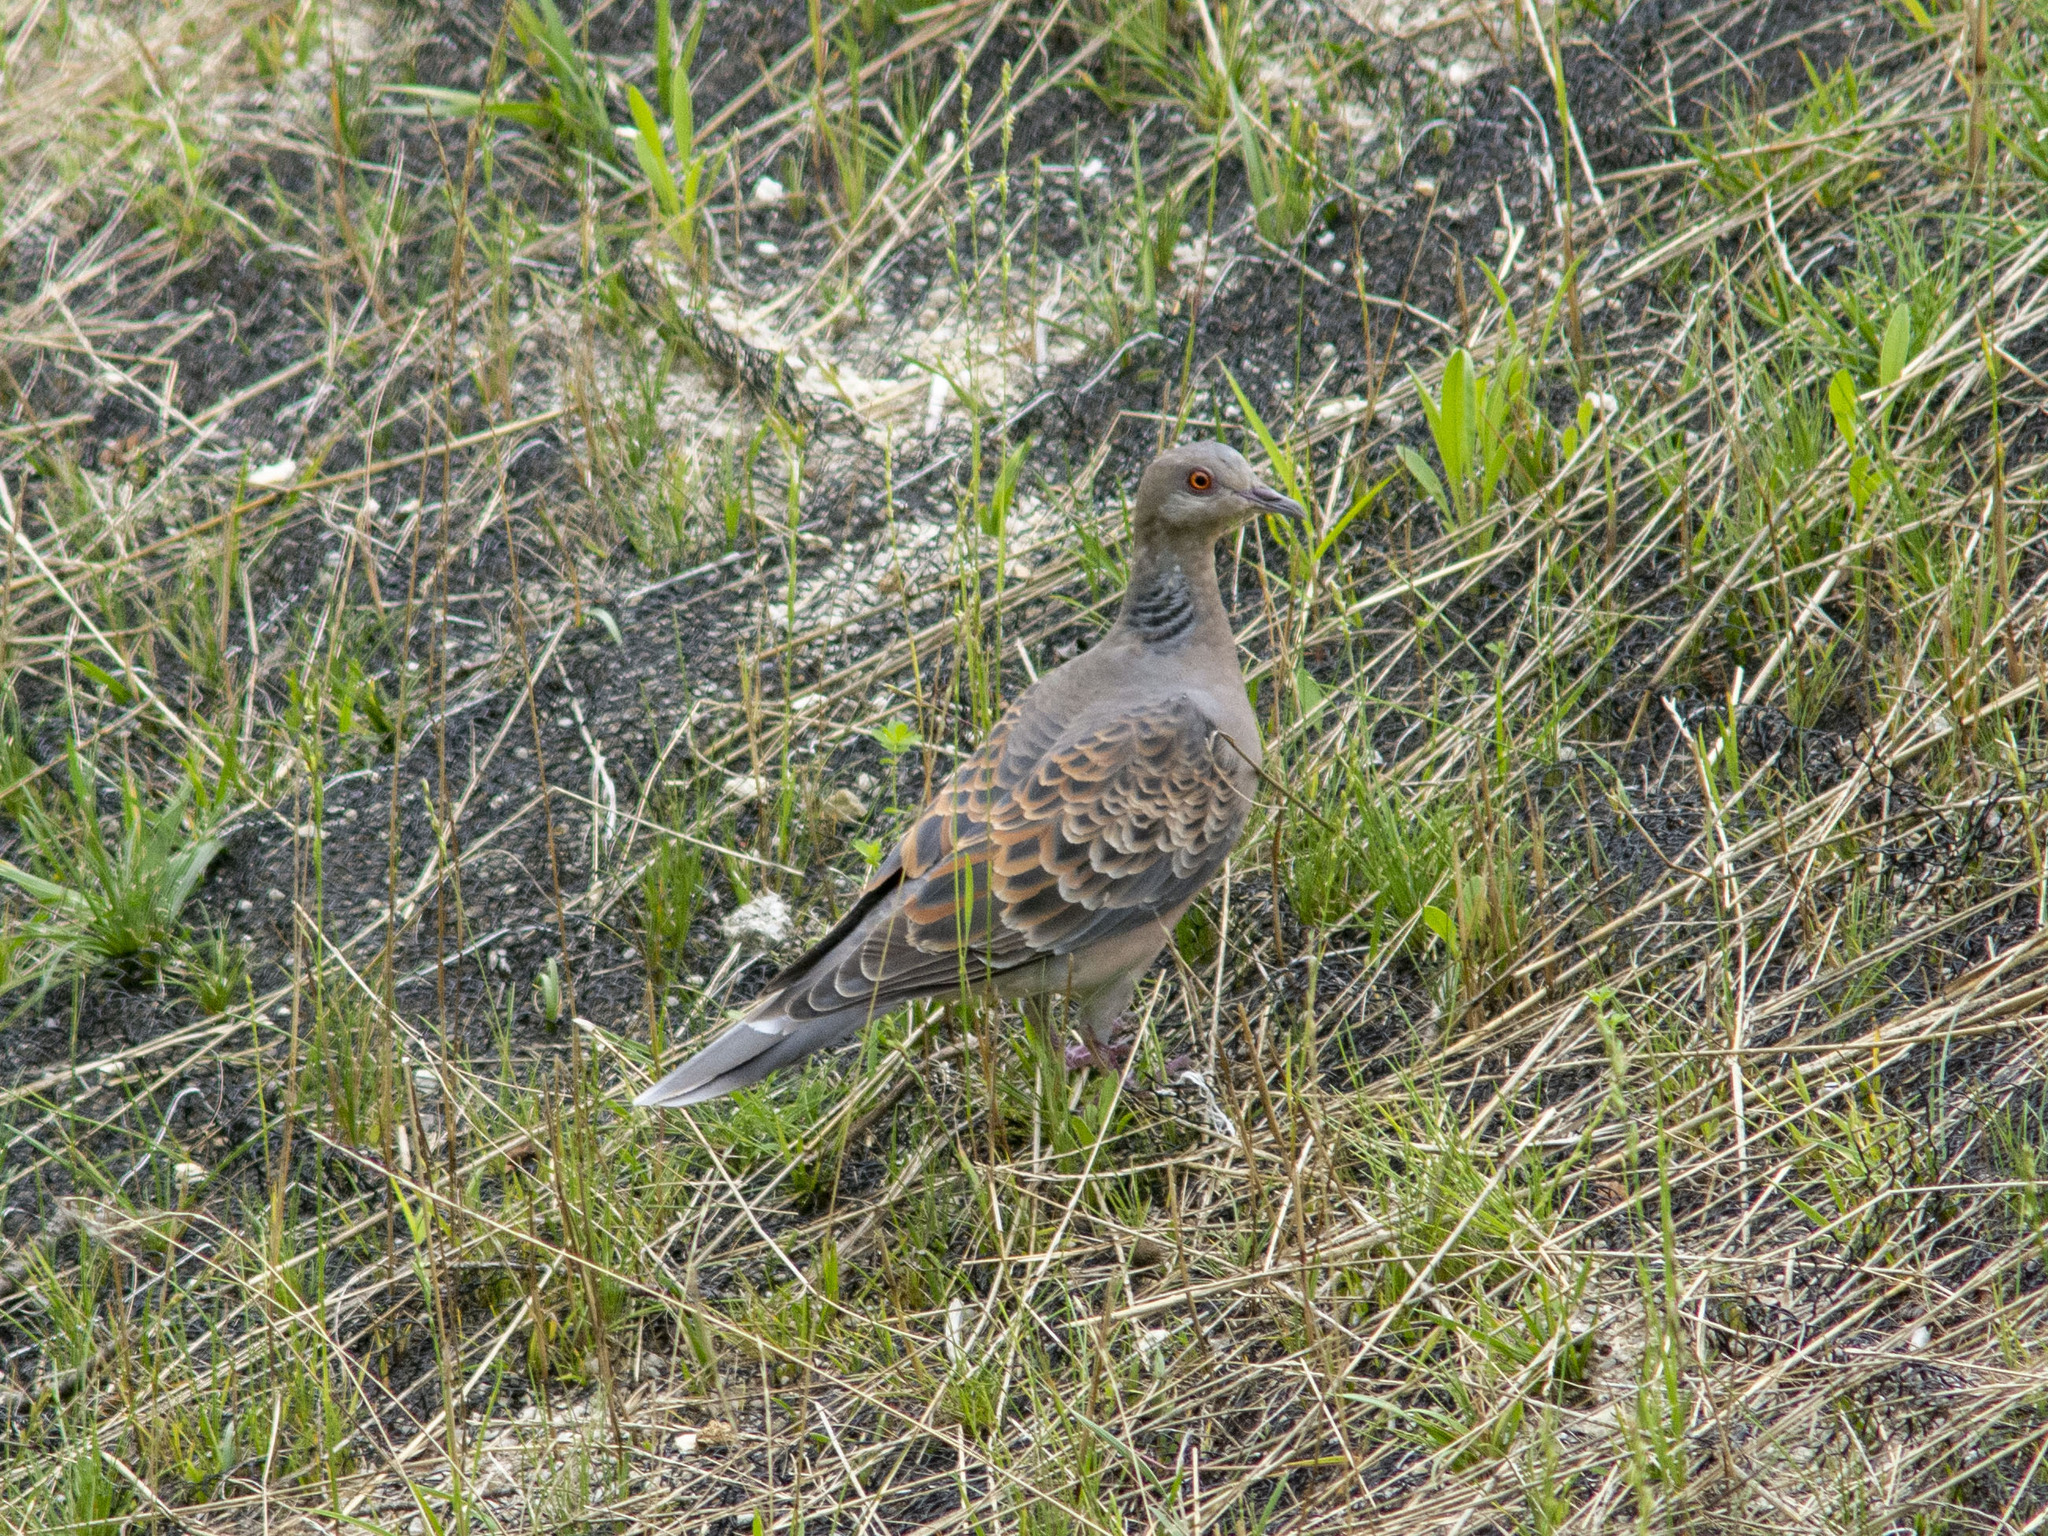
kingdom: Animalia
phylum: Chordata
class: Aves
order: Columbiformes
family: Columbidae
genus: Streptopelia
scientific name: Streptopelia orientalis
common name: Oriental turtle dove
